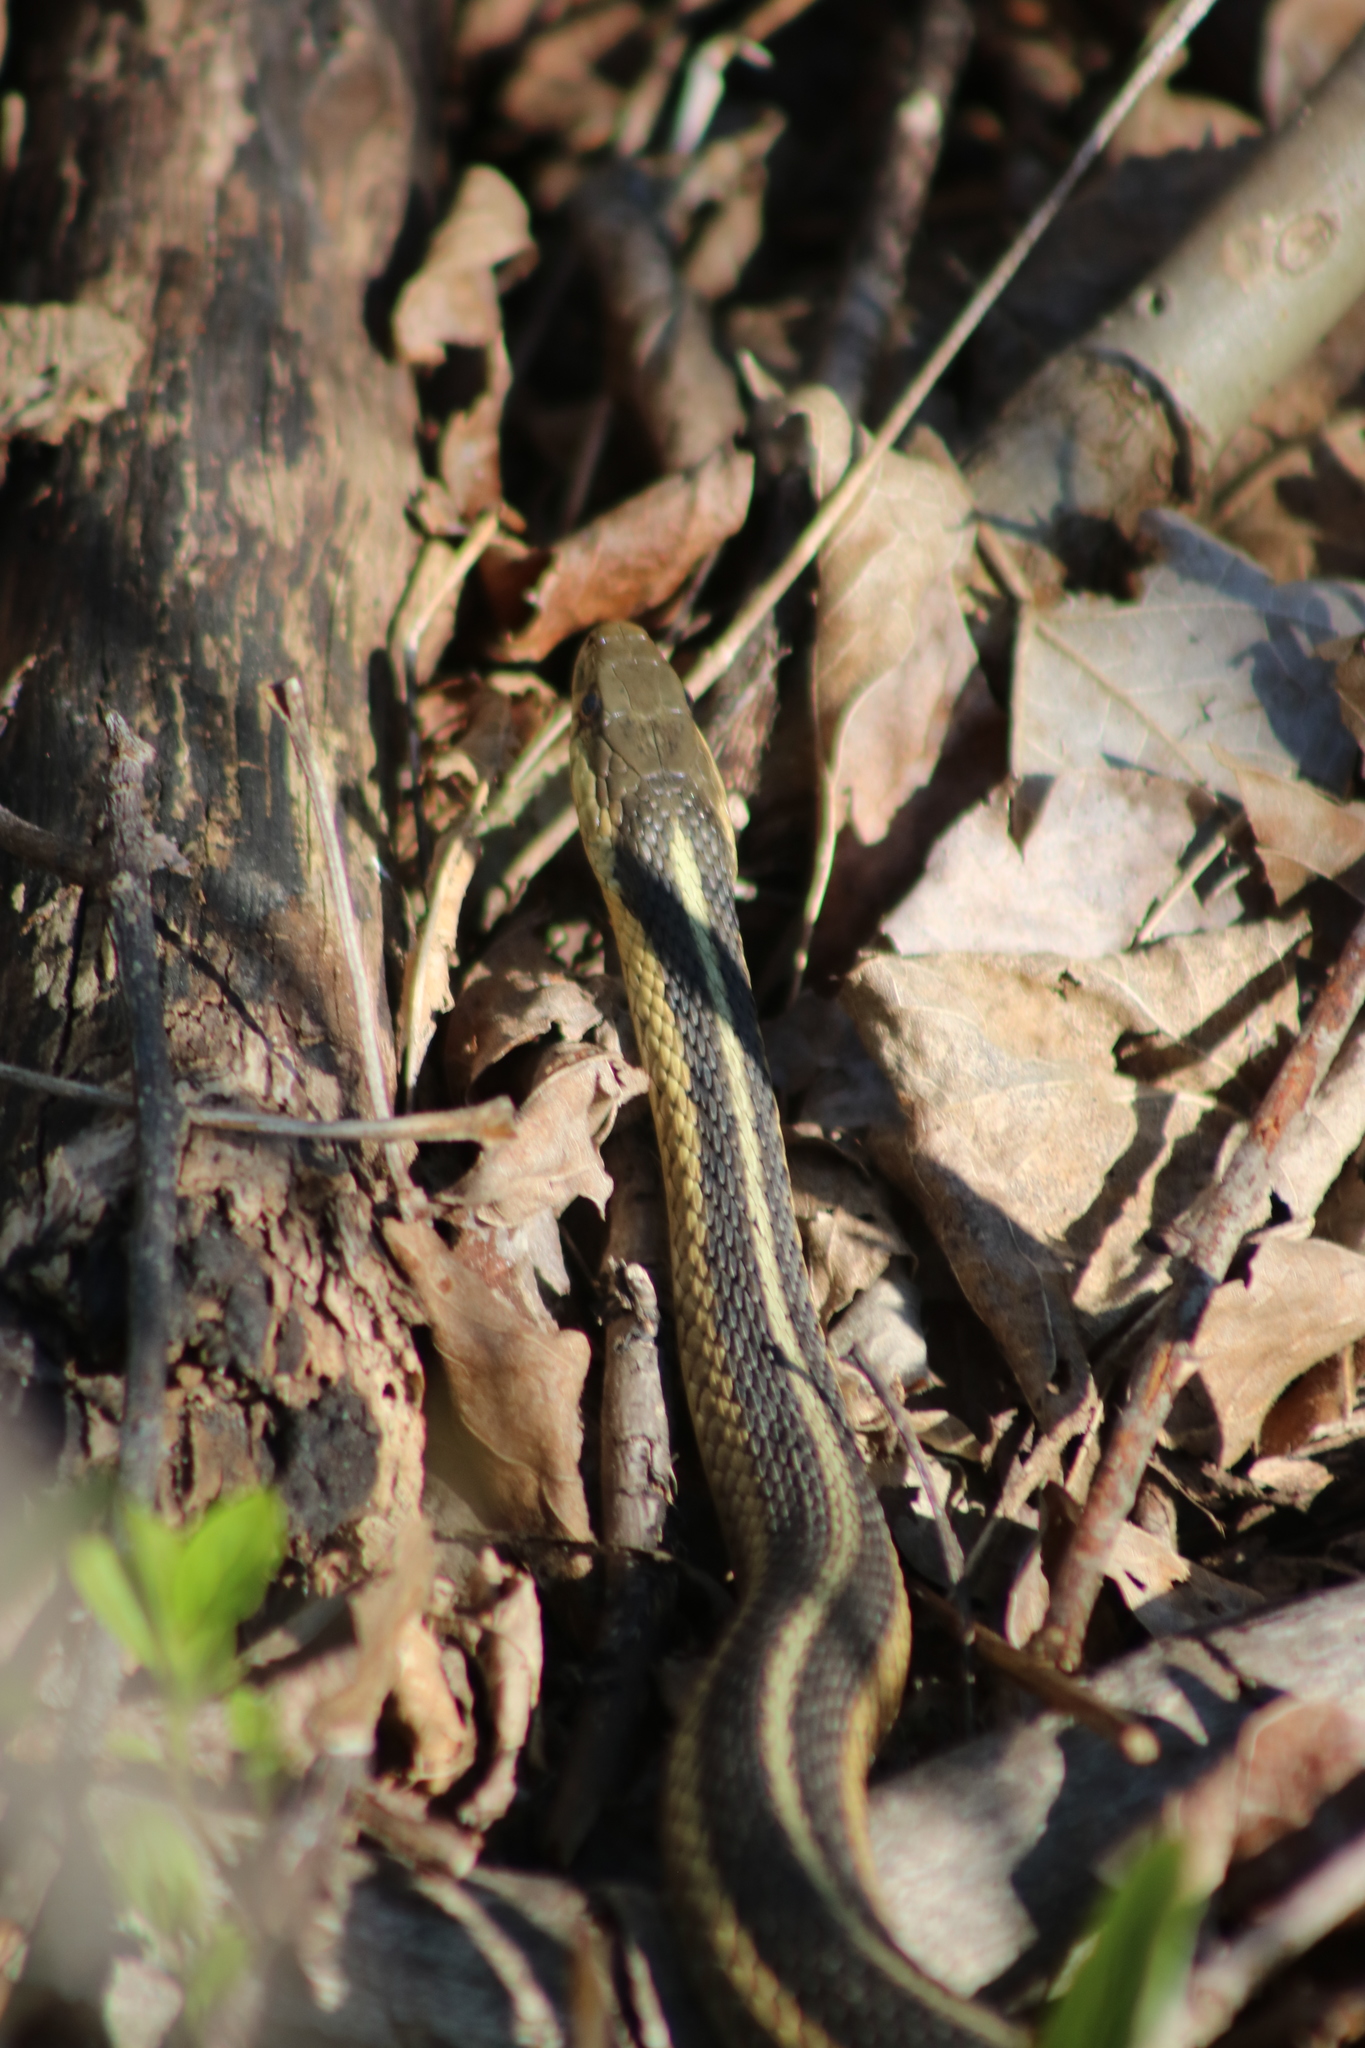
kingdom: Animalia
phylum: Chordata
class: Squamata
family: Colubridae
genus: Thamnophis
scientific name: Thamnophis sirtalis
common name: Common garter snake
